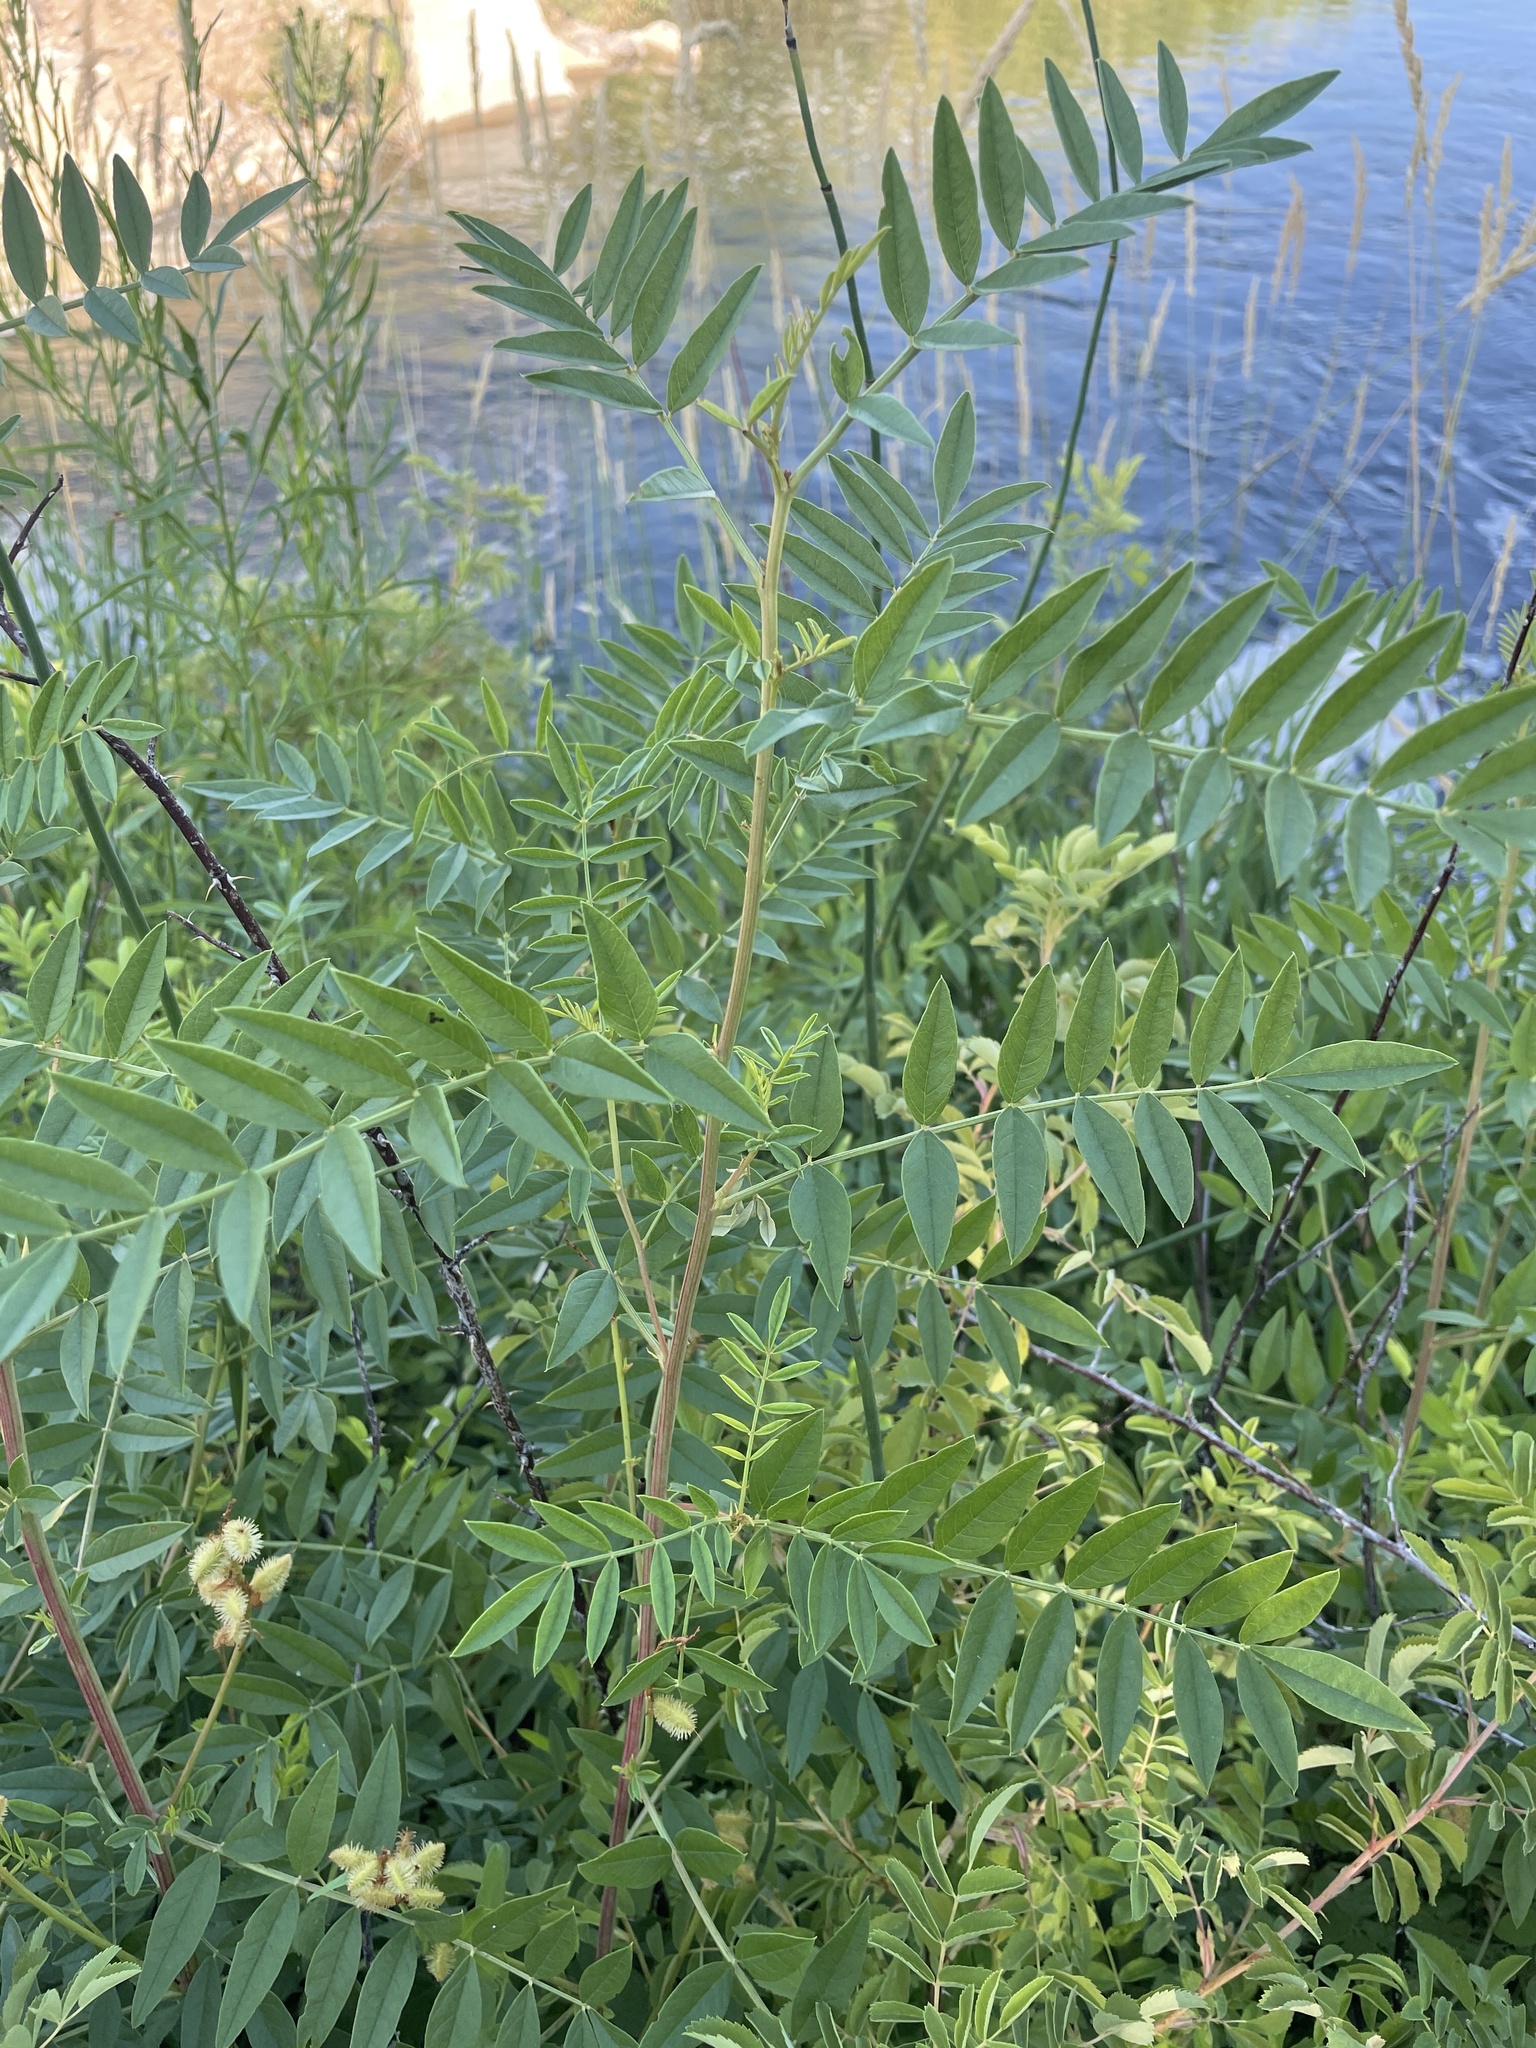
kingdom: Plantae
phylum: Tracheophyta
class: Magnoliopsida
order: Fabales
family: Fabaceae
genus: Glycyrrhiza
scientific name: Glycyrrhiza lepidota
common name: American liquorice
